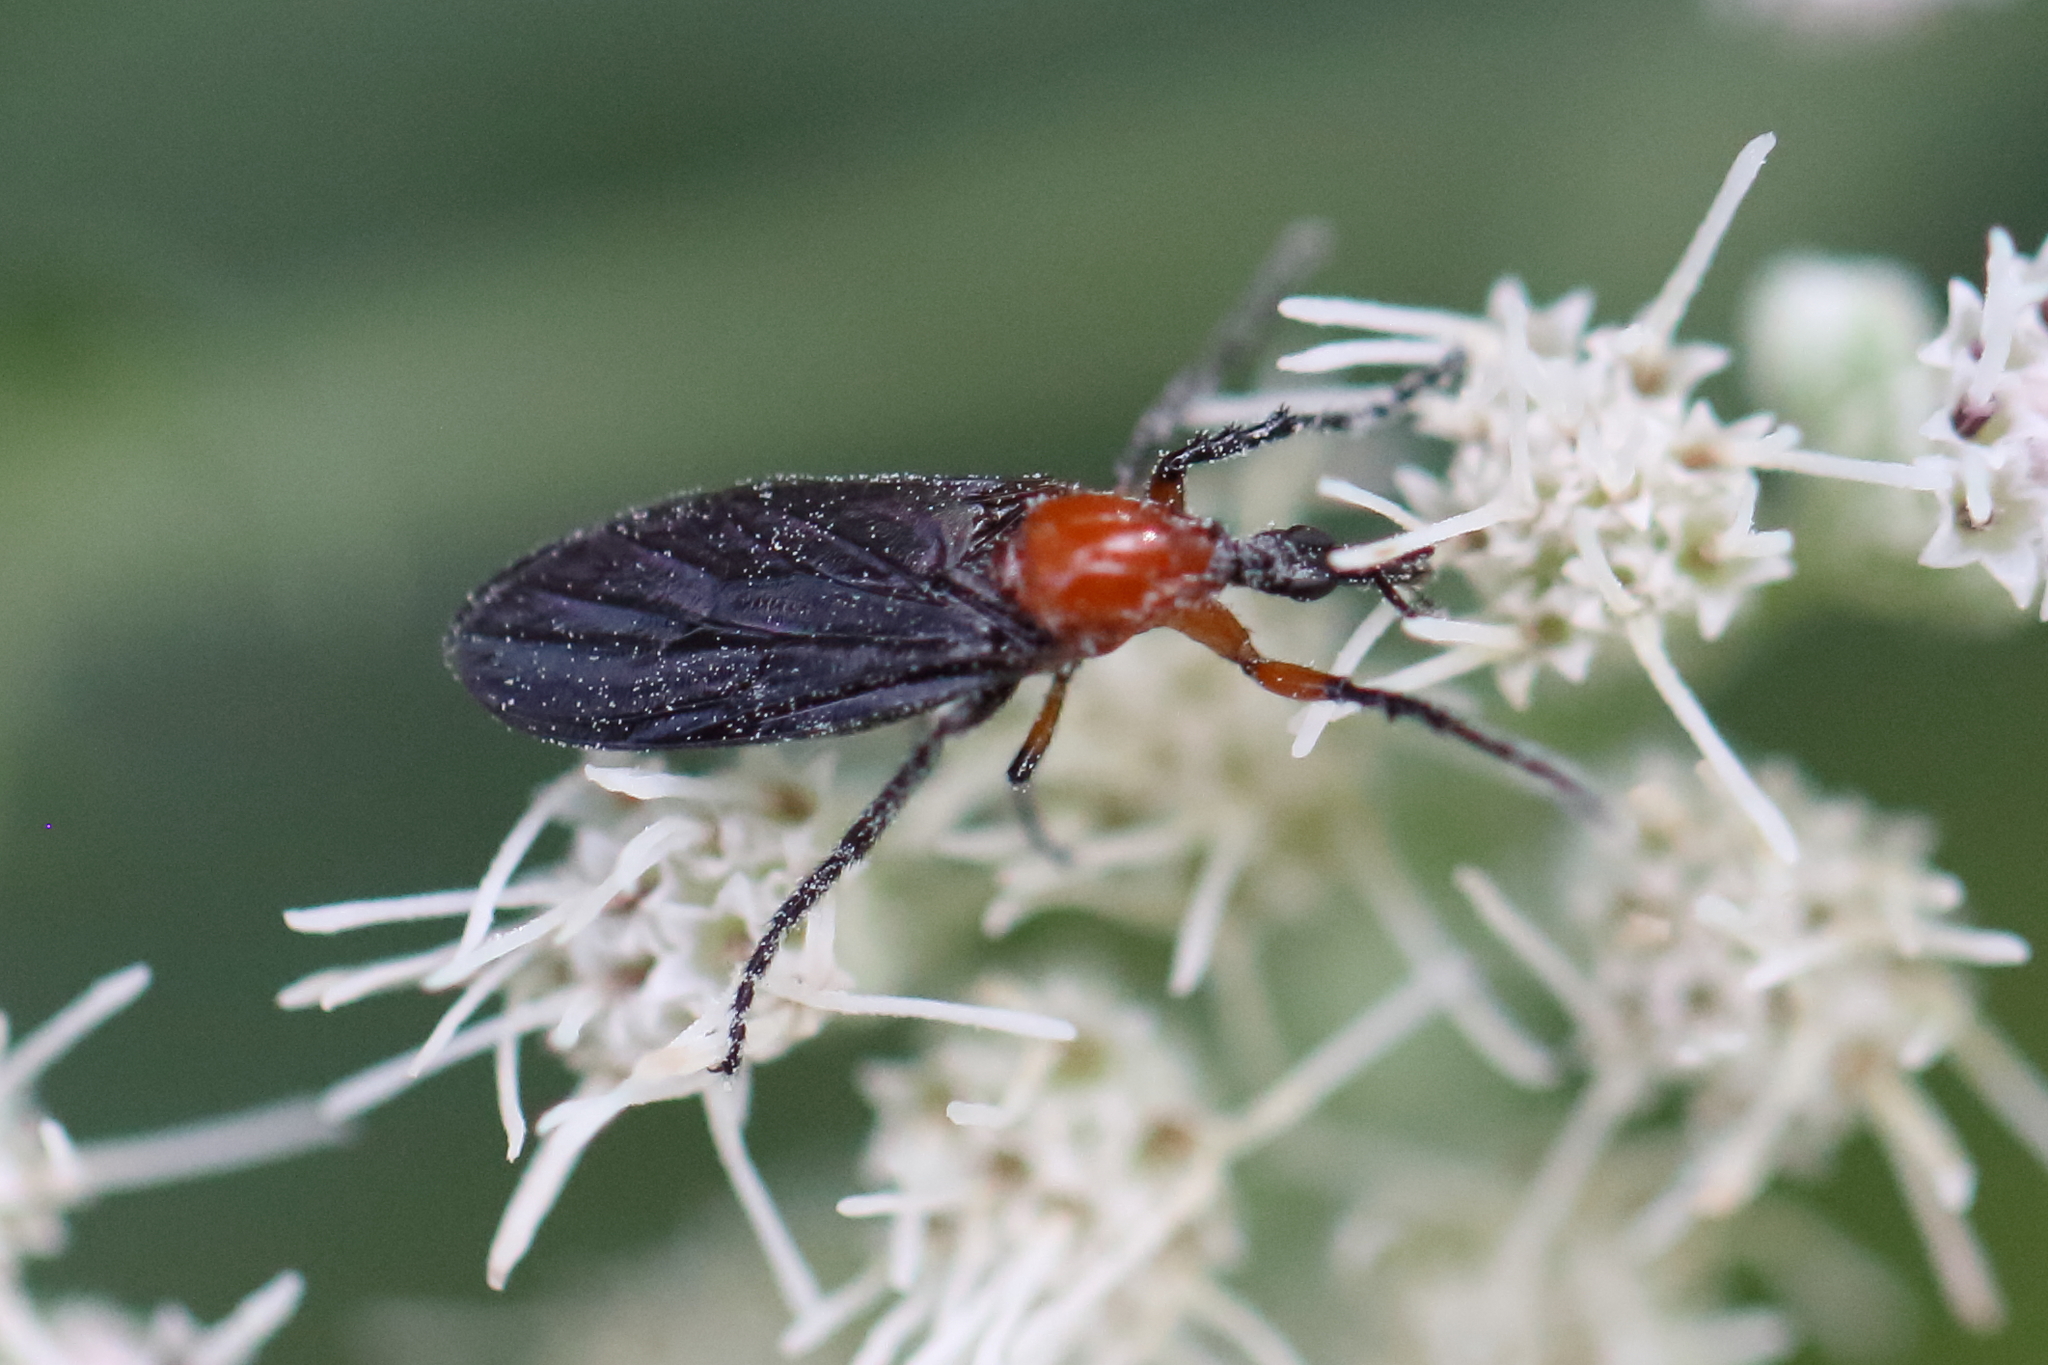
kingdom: Animalia
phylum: Arthropoda
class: Insecta
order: Diptera
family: Bibionidae
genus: Dilophus
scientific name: Dilophus spinipes
